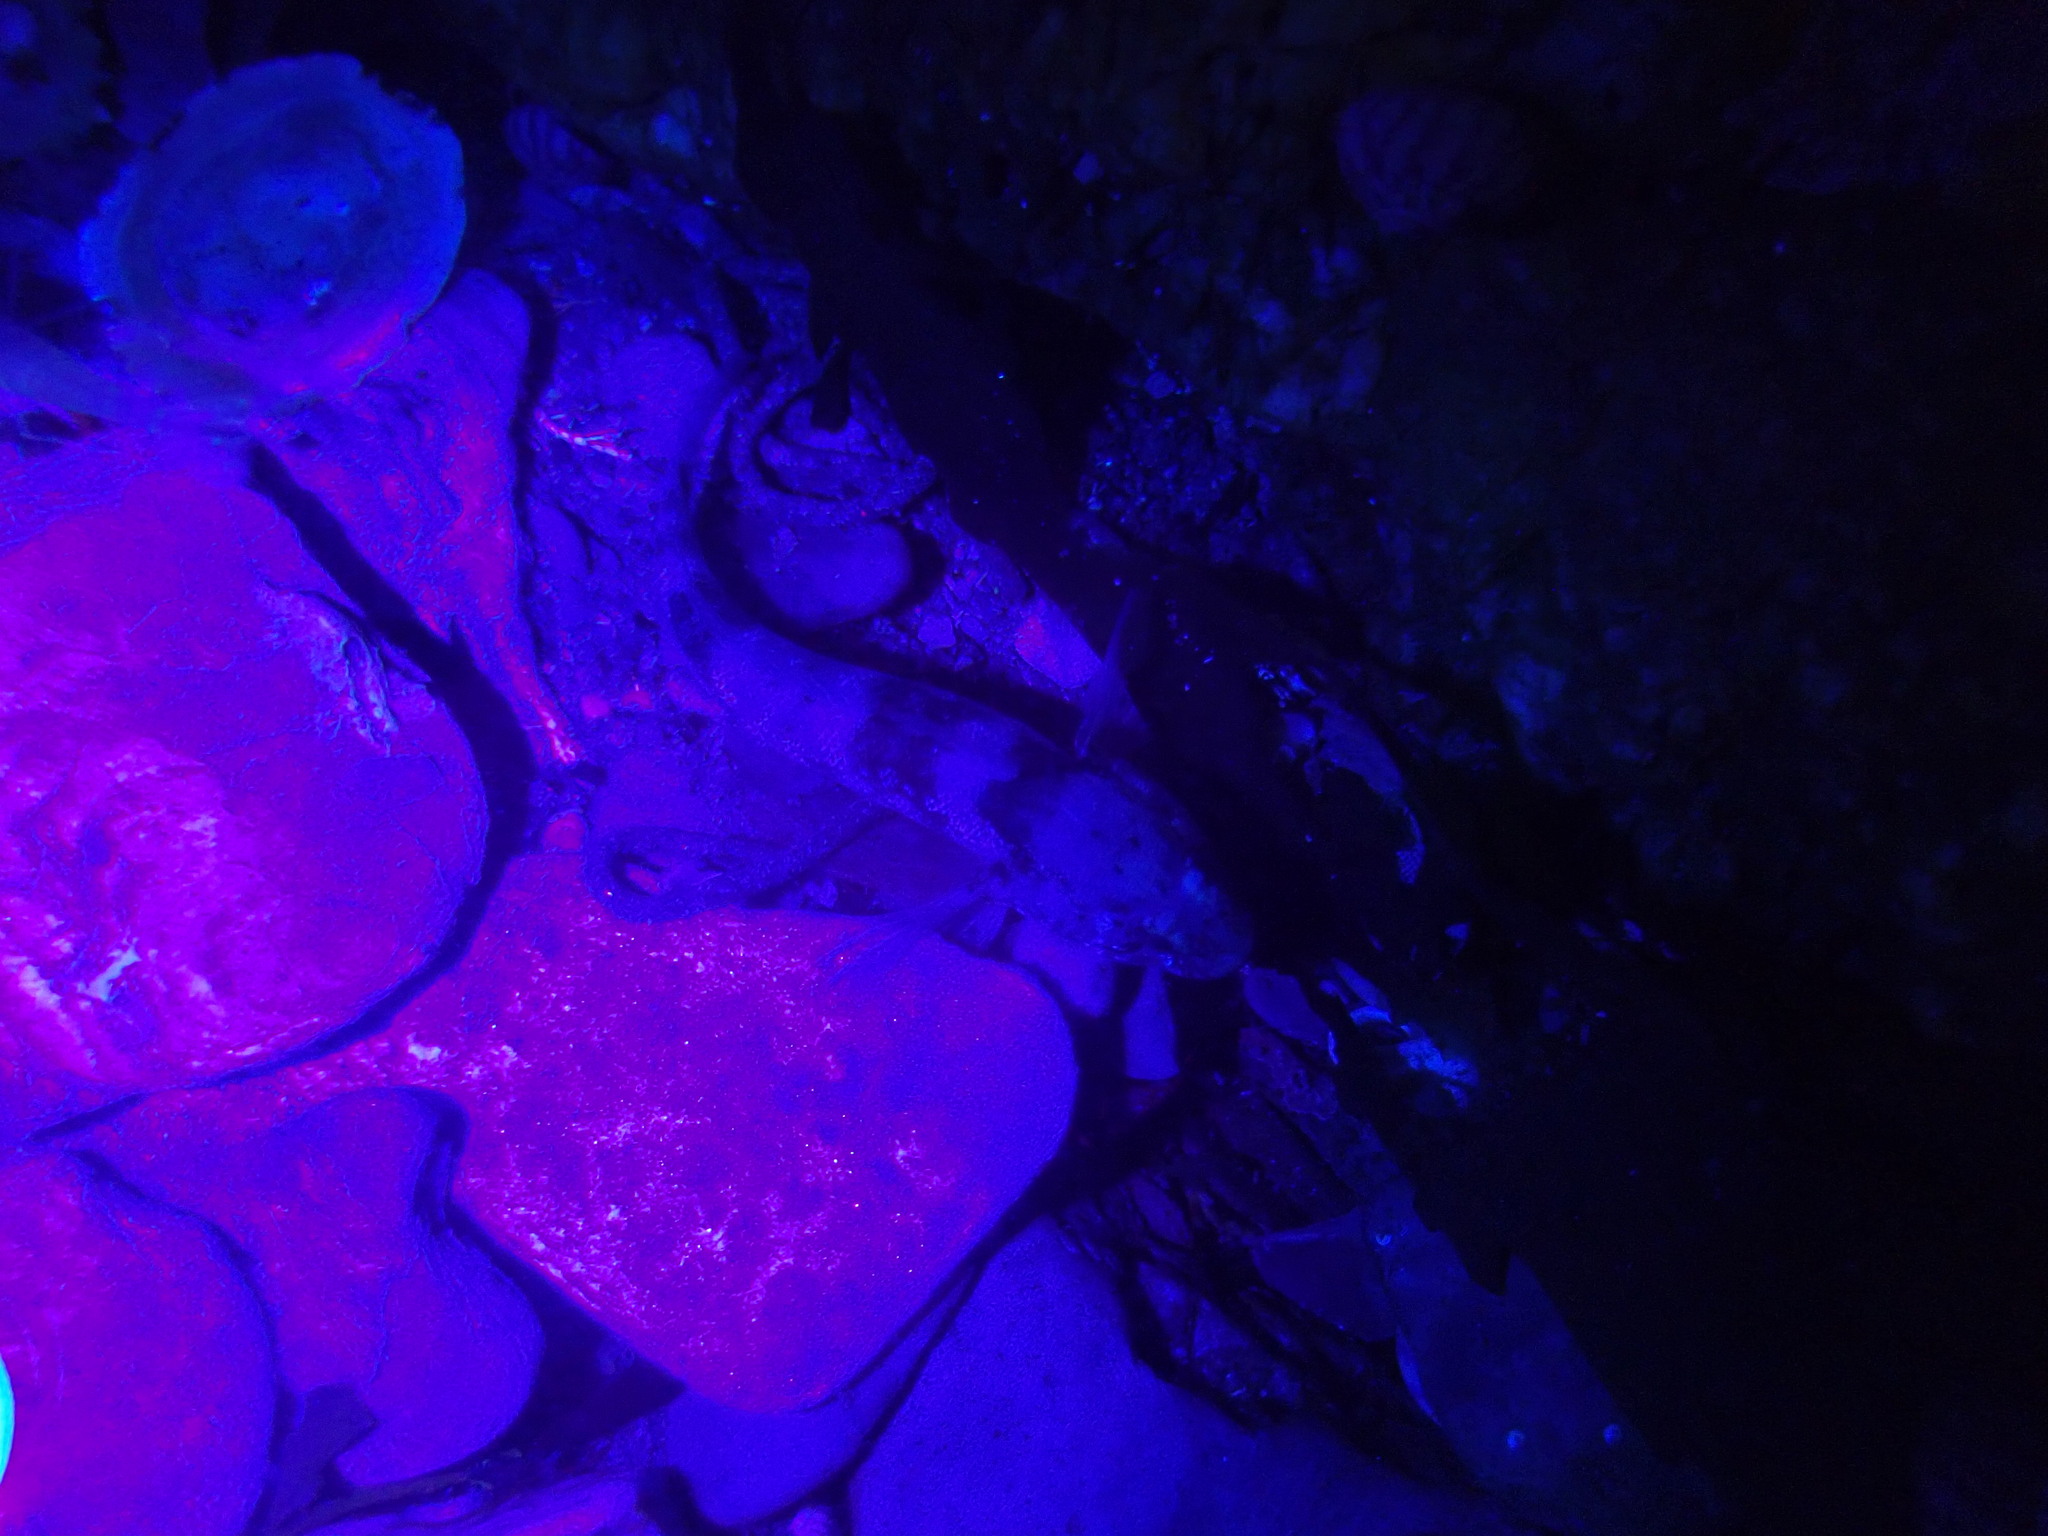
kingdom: Animalia
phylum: Chordata
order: Perciformes
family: Gobiidae
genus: Gobius
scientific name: Gobius paganellus
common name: Rock goby
